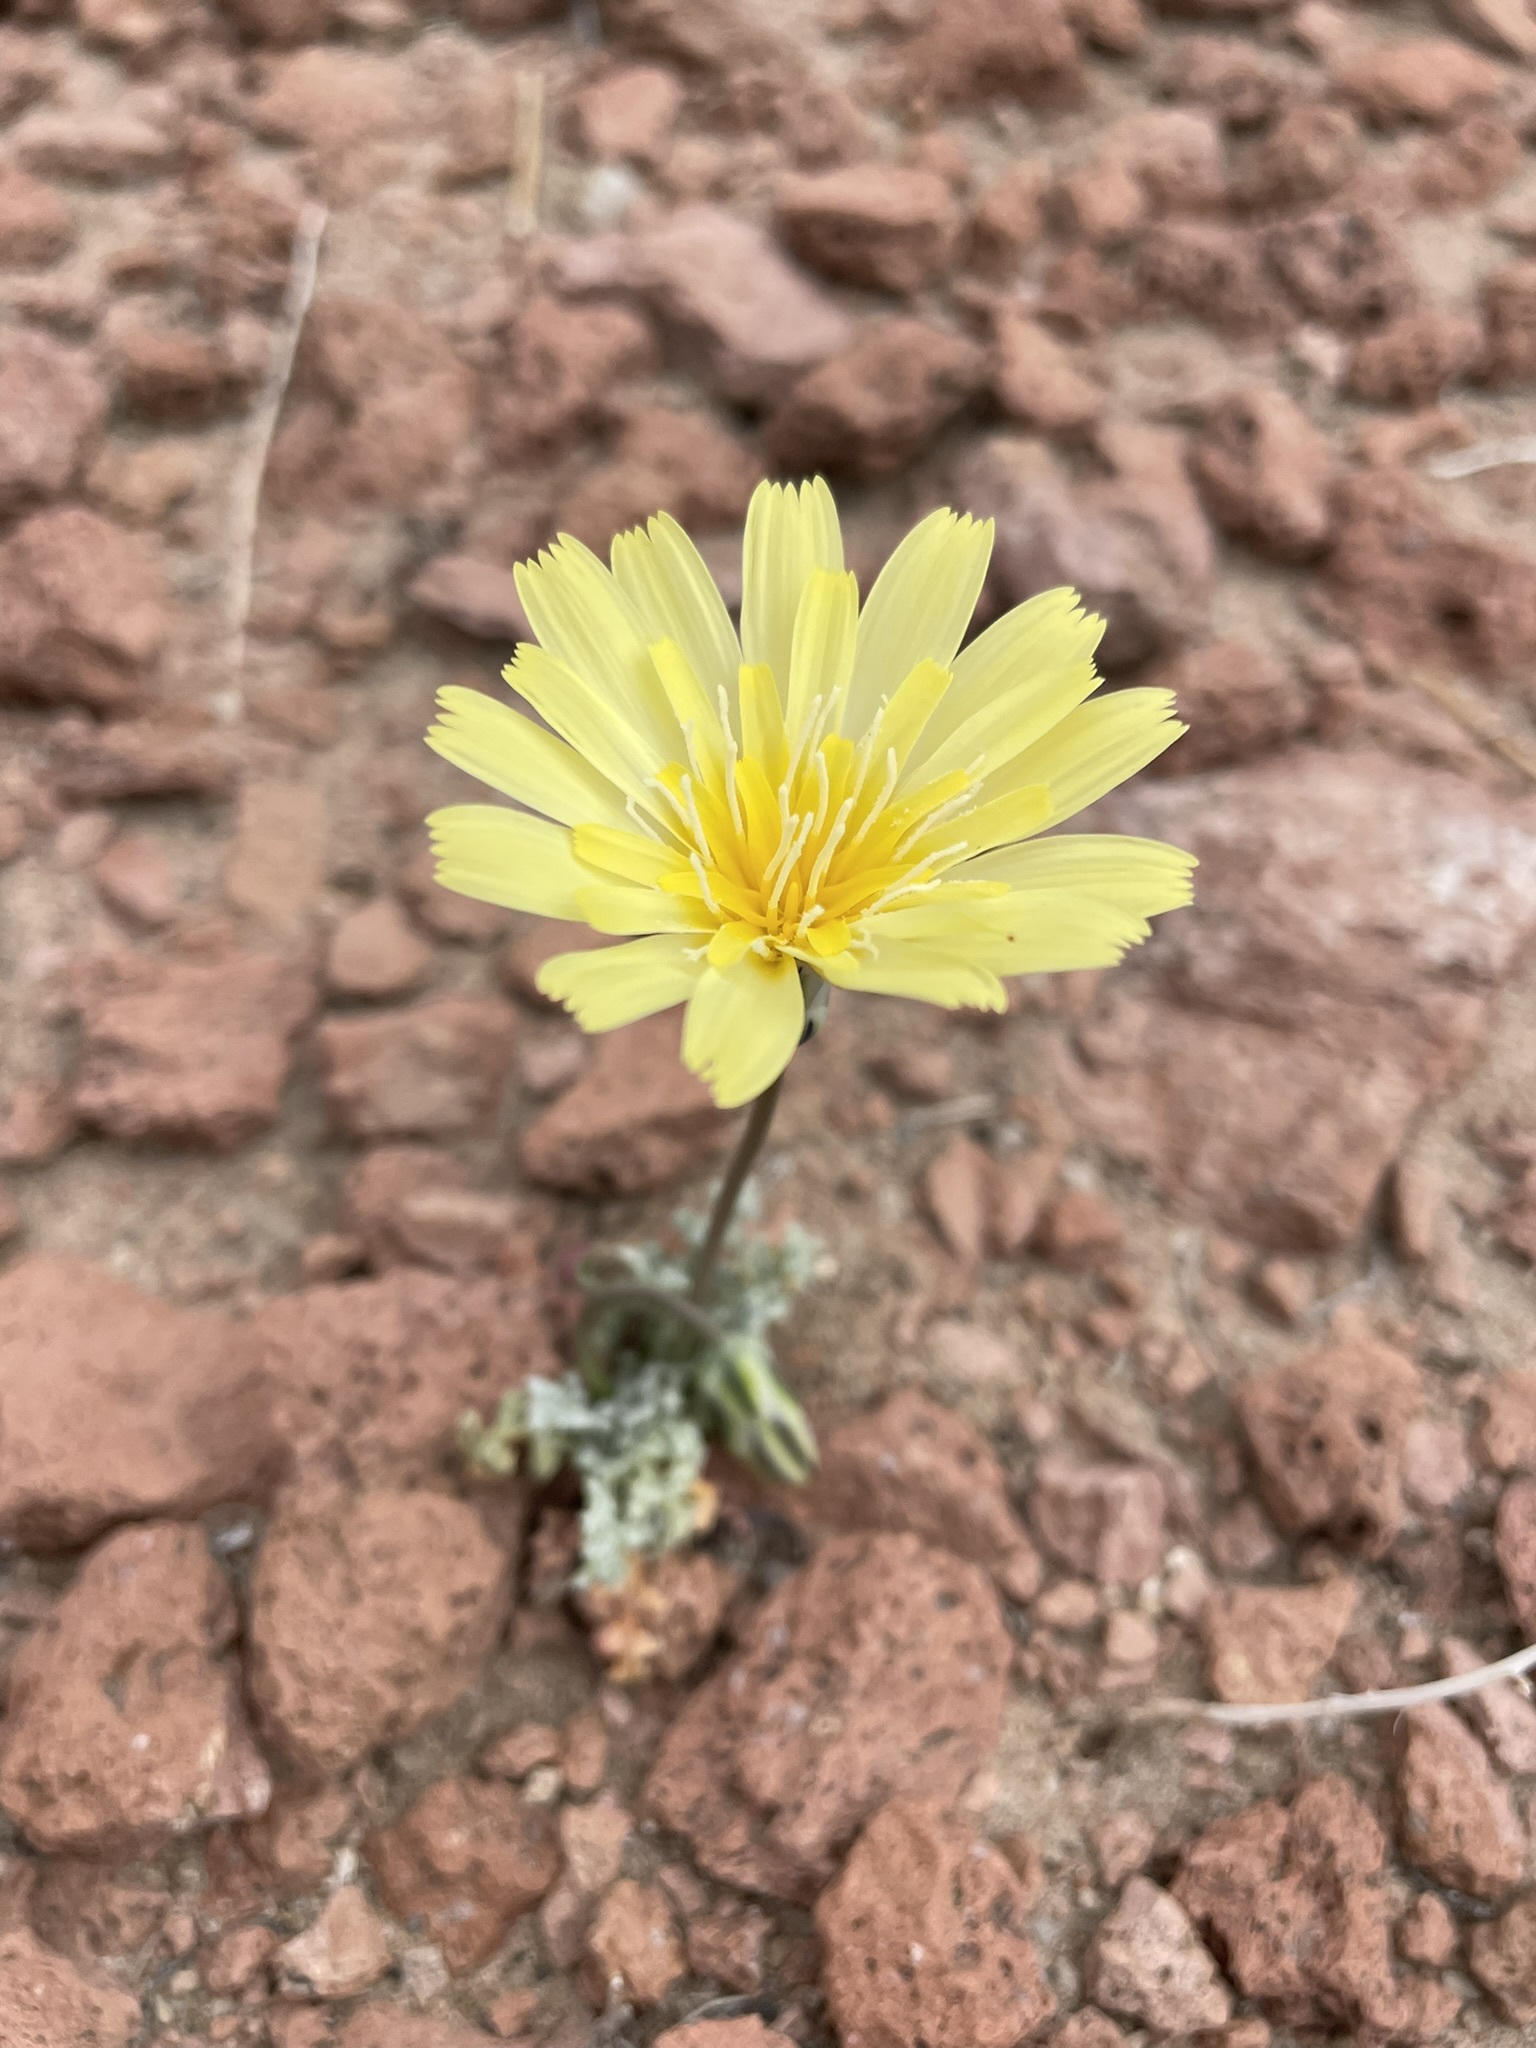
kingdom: Plantae
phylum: Tracheophyta
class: Magnoliopsida
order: Asterales
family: Asteraceae
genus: Anisocoma
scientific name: Anisocoma acaulis
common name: Scalebud
